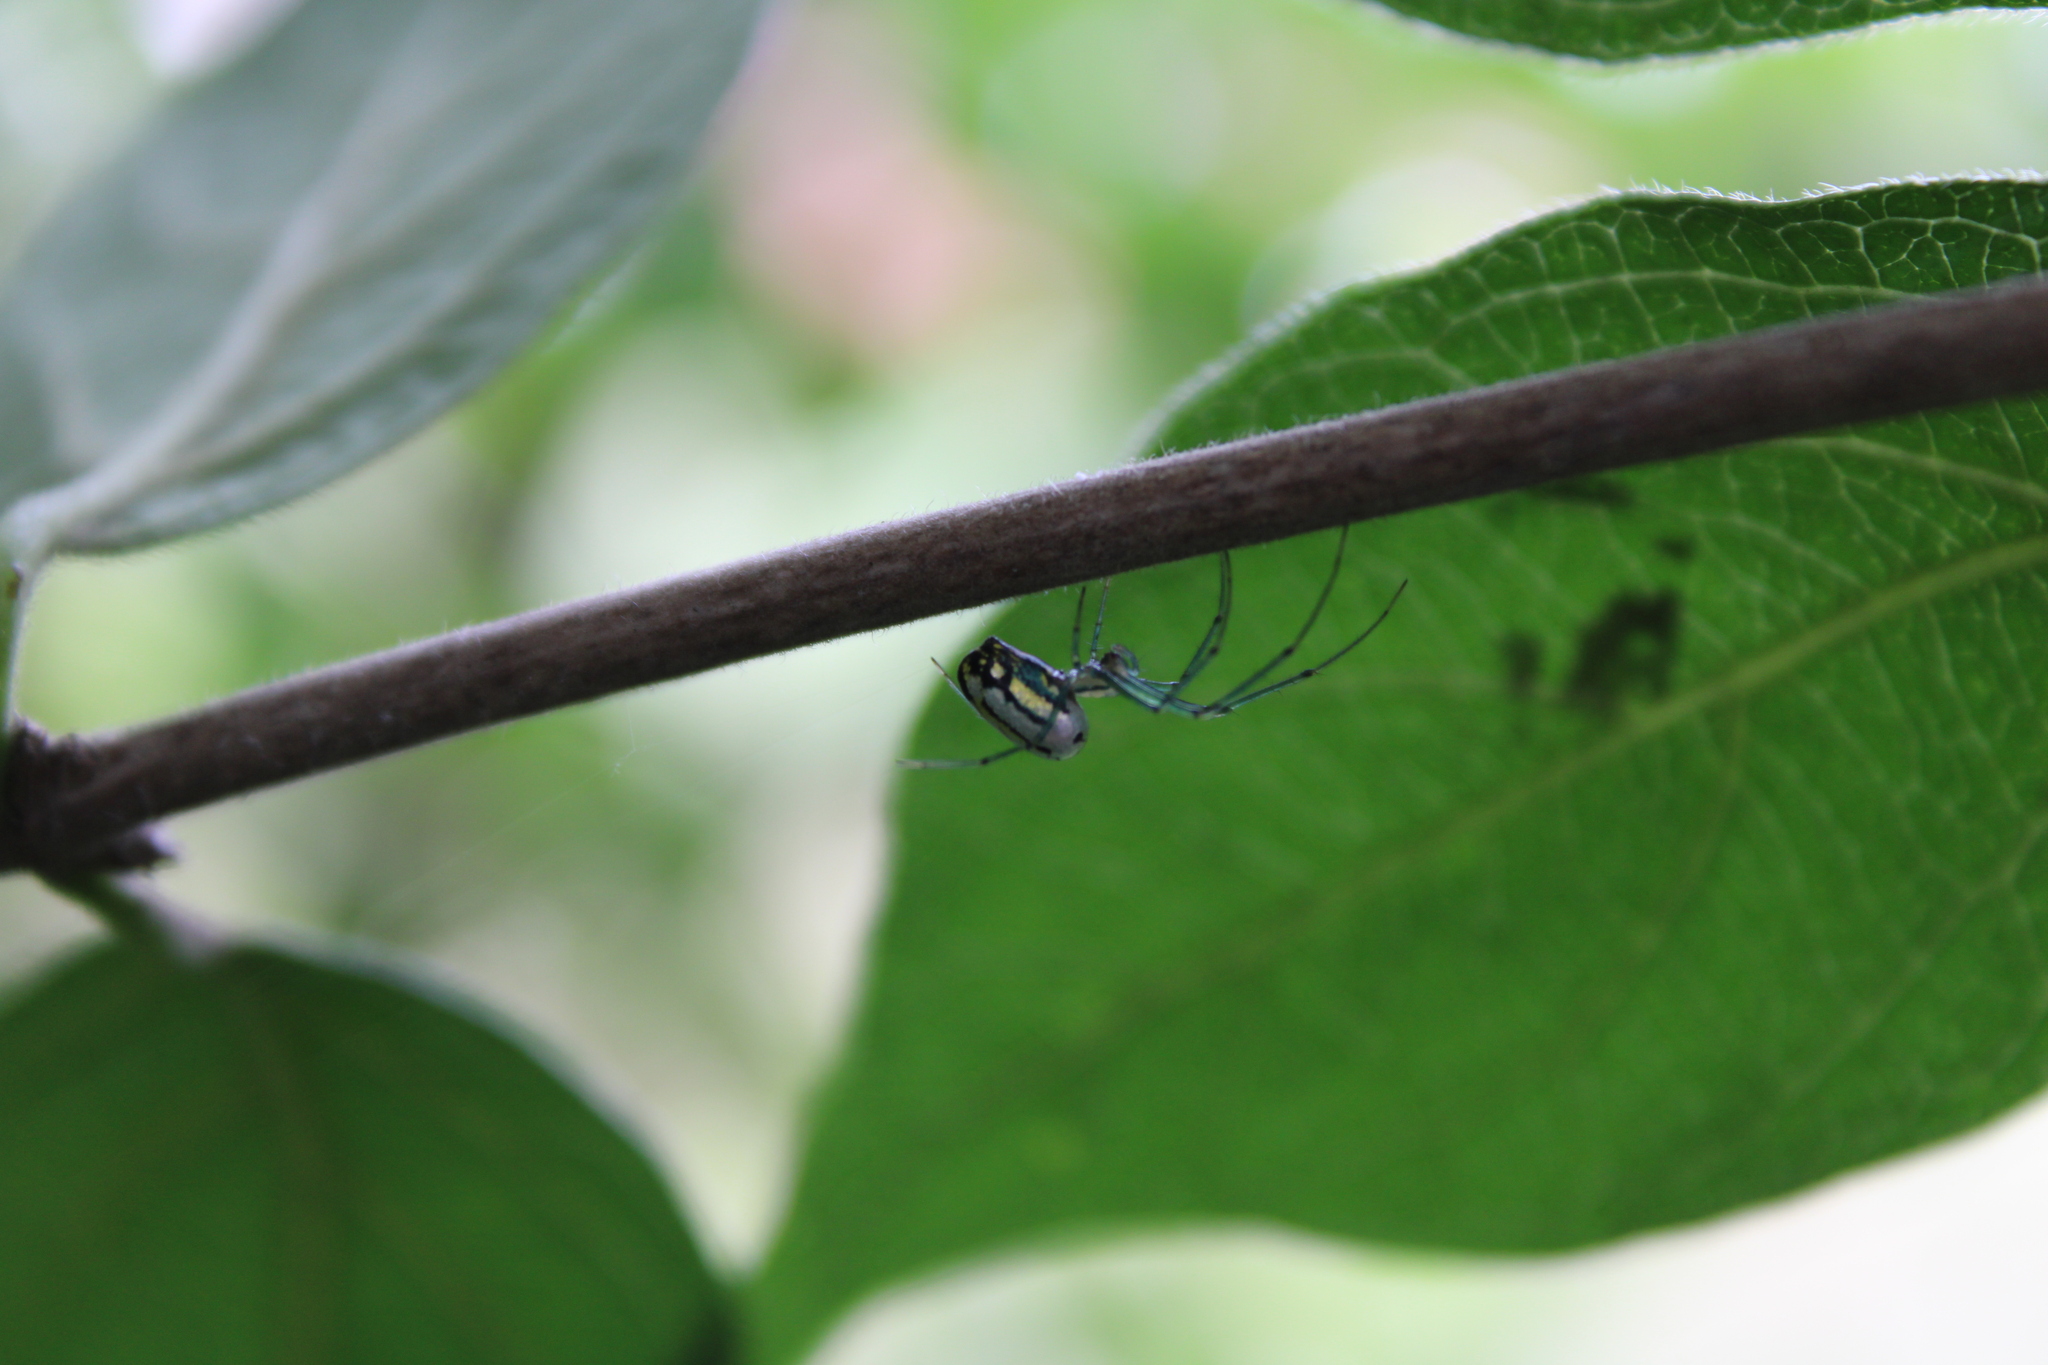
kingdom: Animalia
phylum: Arthropoda
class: Arachnida
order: Araneae
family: Tetragnathidae
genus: Leucauge
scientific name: Leucauge venusta
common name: Longjawed orb weavers
